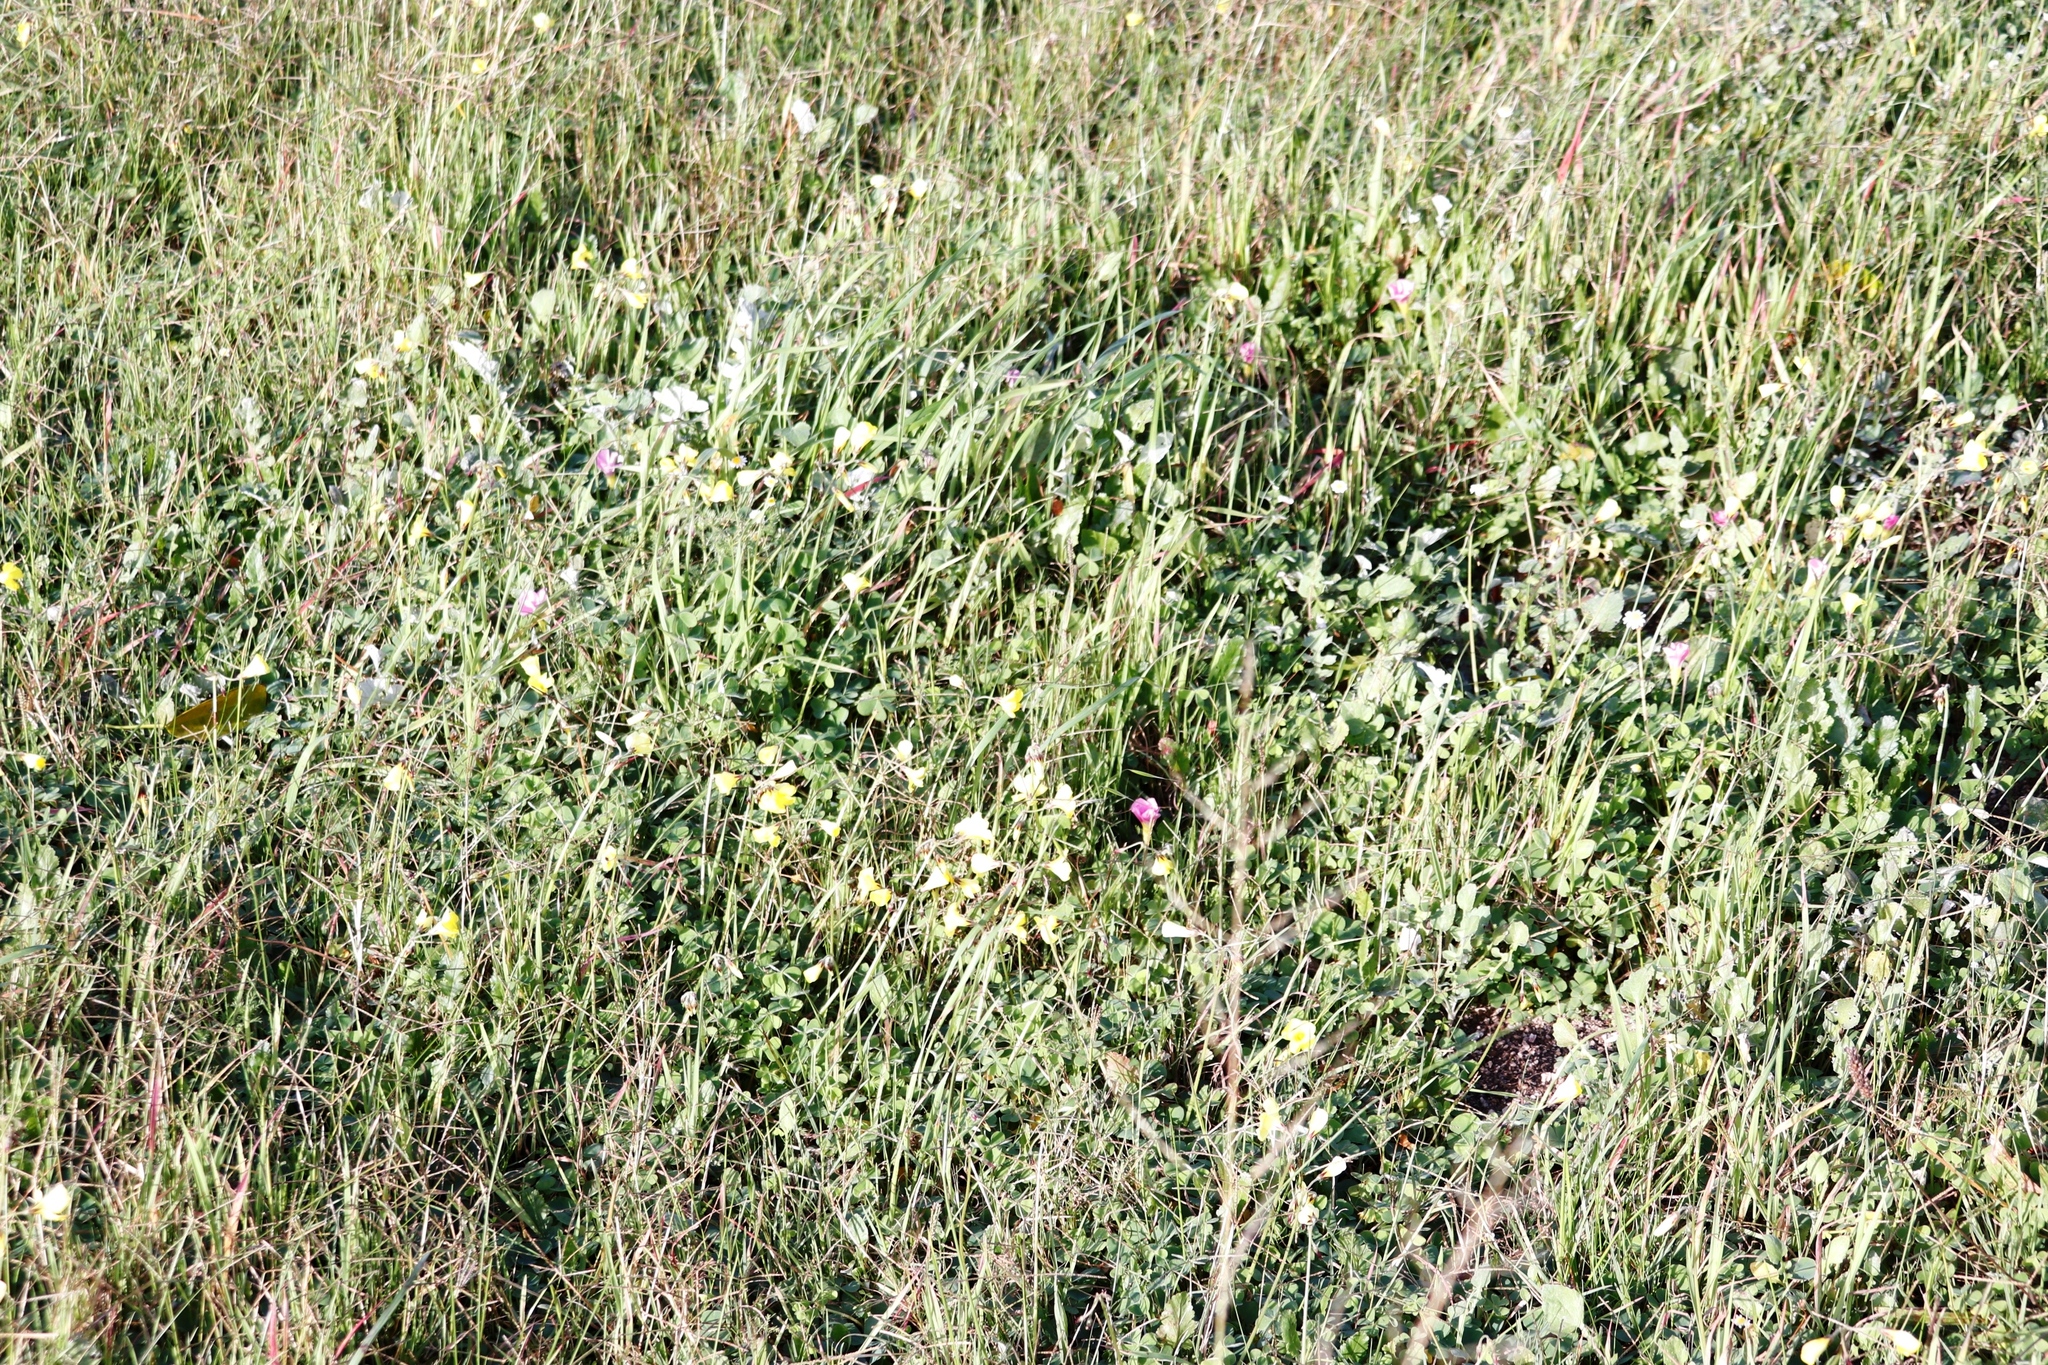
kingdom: Plantae
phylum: Tracheophyta
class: Magnoliopsida
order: Oxalidales
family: Oxalidaceae
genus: Oxalis
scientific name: Oxalis purpurea
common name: Purple woodsorrel
